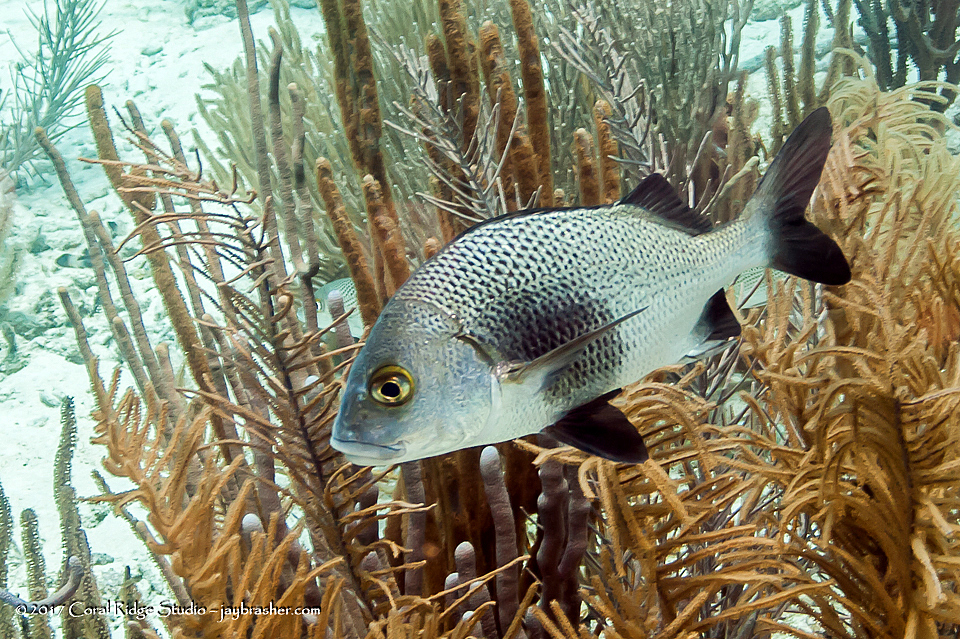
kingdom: Animalia
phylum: Chordata
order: Perciformes
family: Haemulidae
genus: Anisotremus
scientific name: Anisotremus surinamensis
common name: Black margate
